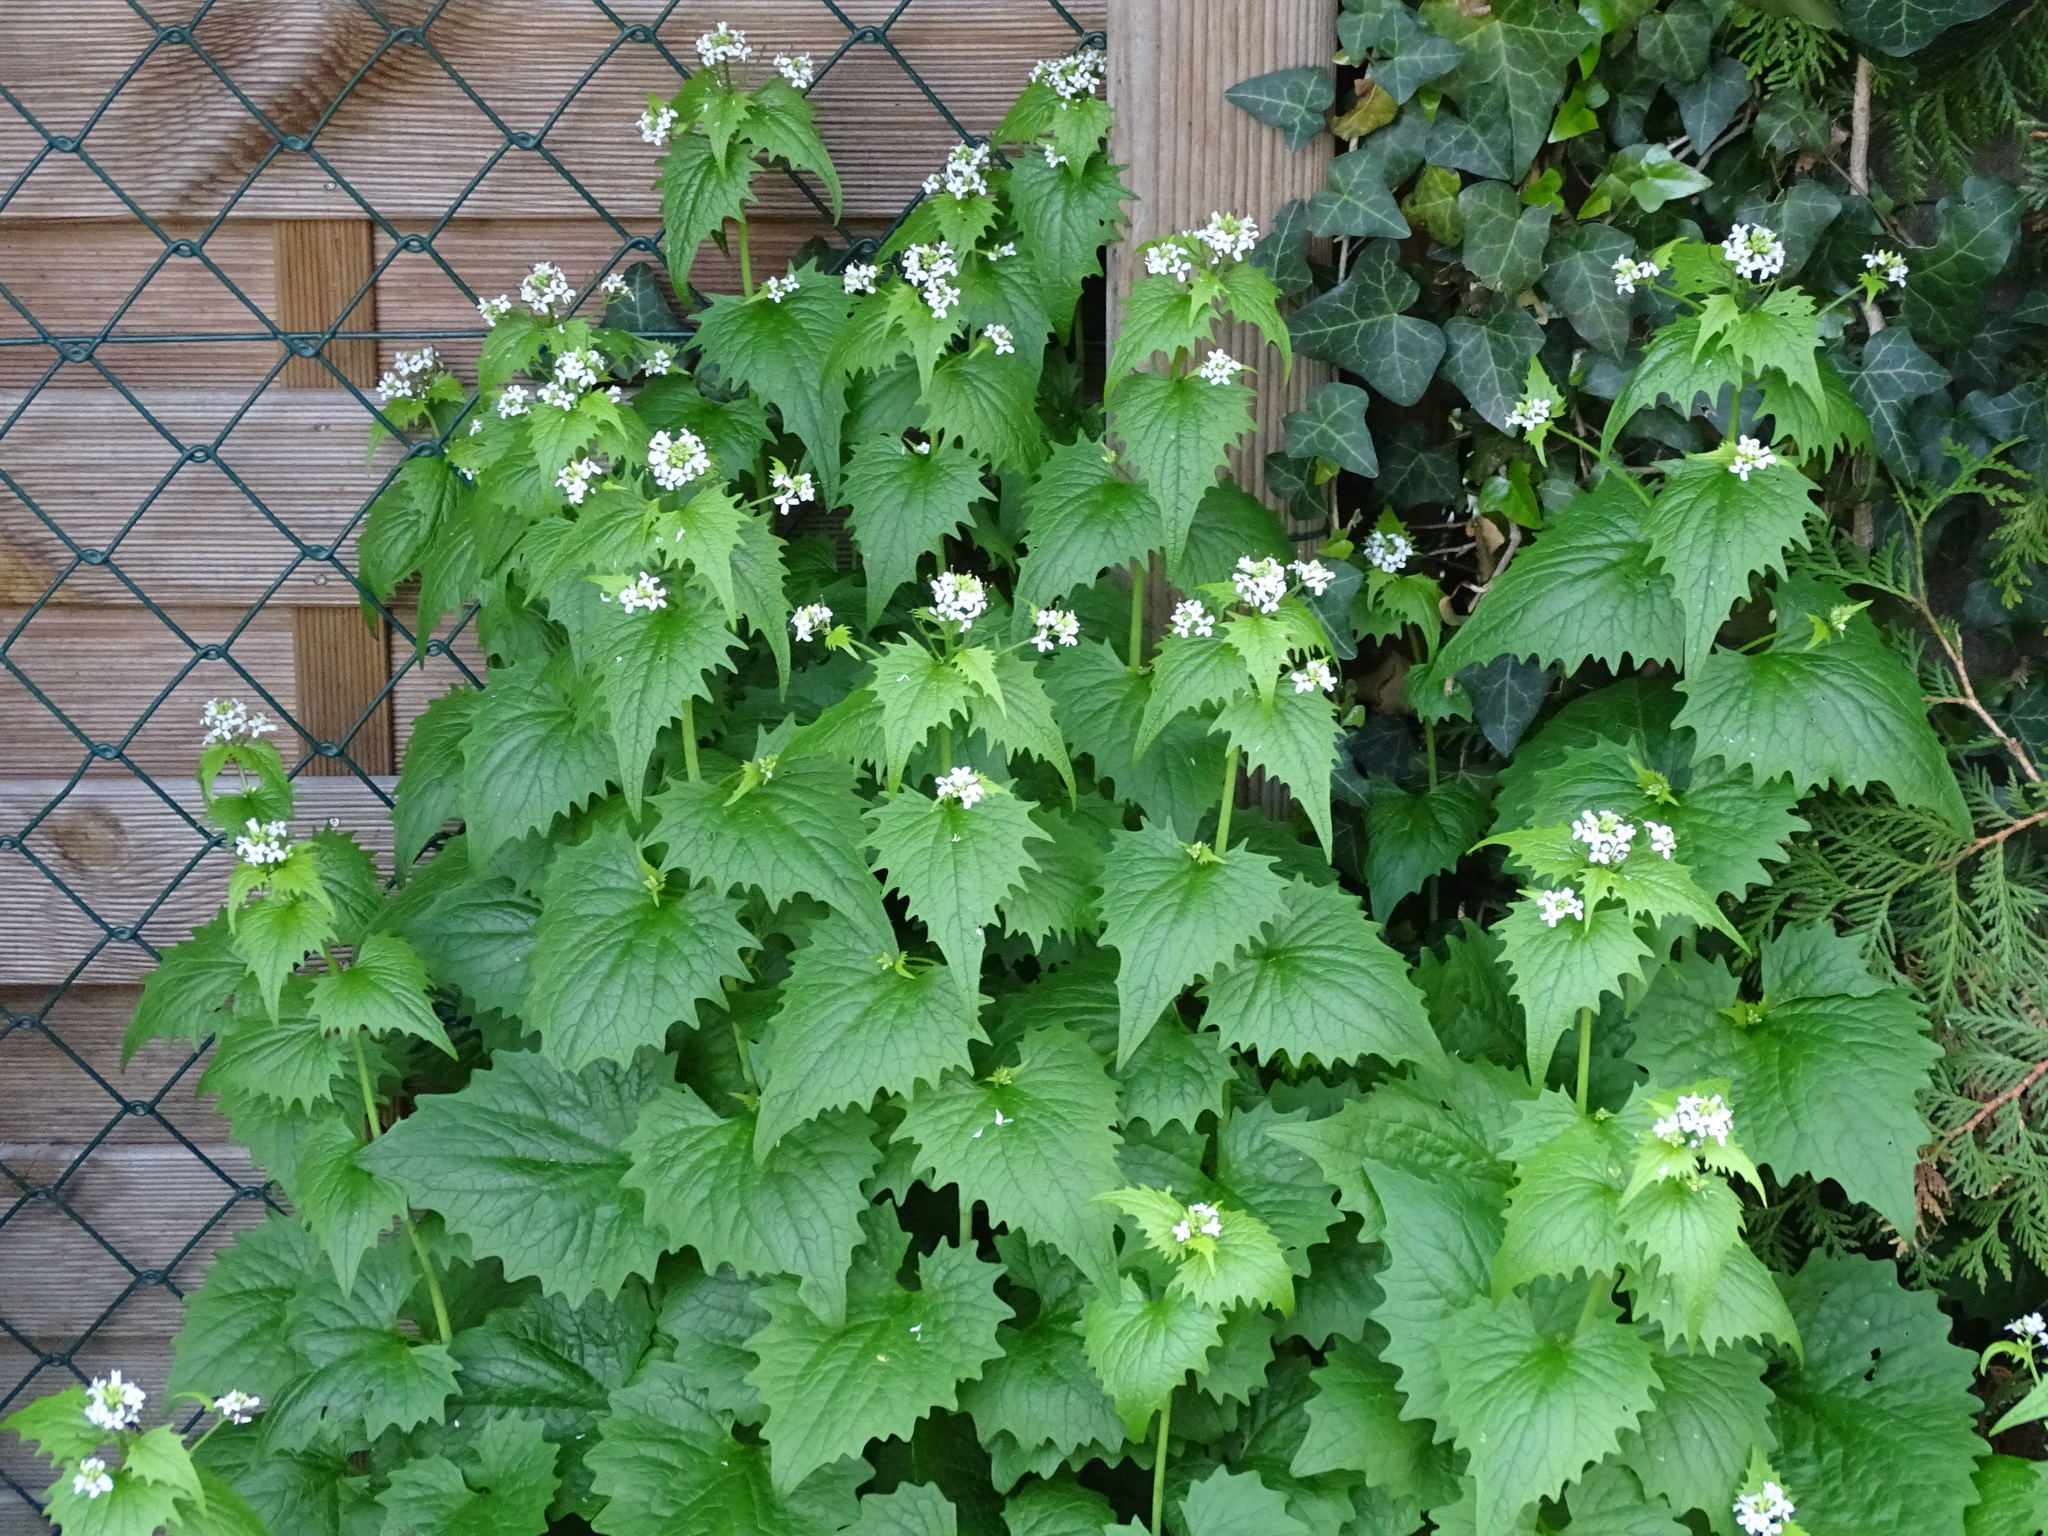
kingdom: Plantae
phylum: Tracheophyta
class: Magnoliopsida
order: Brassicales
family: Brassicaceae
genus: Alliaria
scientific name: Alliaria petiolata
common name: Garlic mustard
